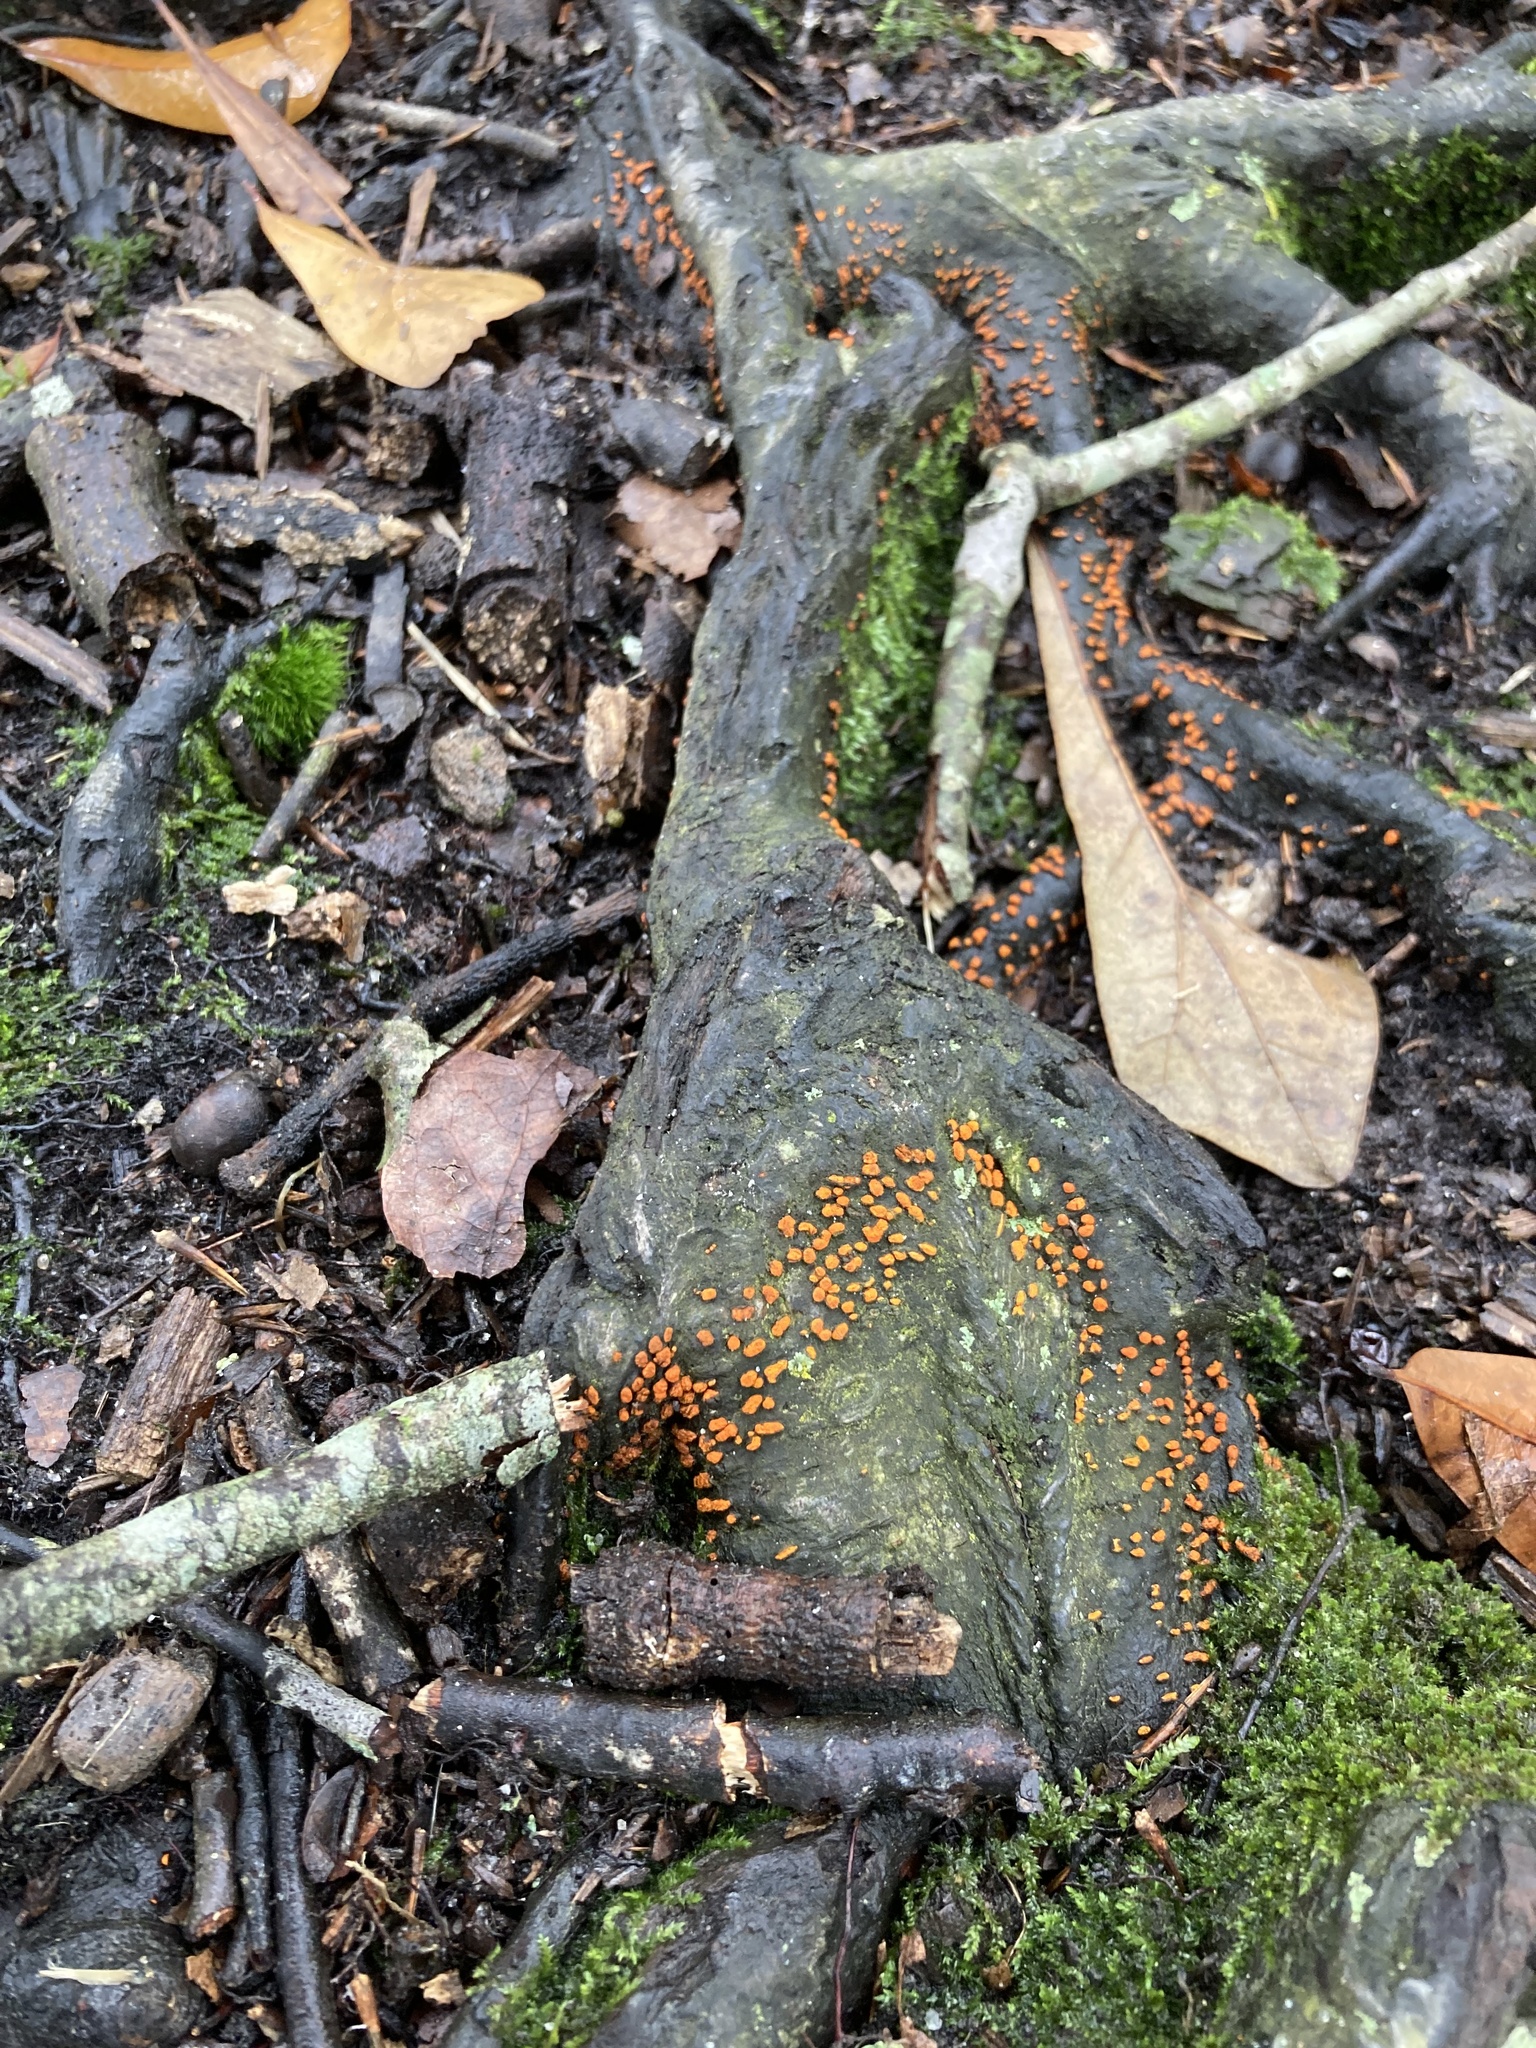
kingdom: Fungi
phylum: Ascomycota
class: Sordariomycetes
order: Diaporthales
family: Cryphonectriaceae
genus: Amphilogia
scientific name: Amphilogia gyrosa
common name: Orange hobnail canker
